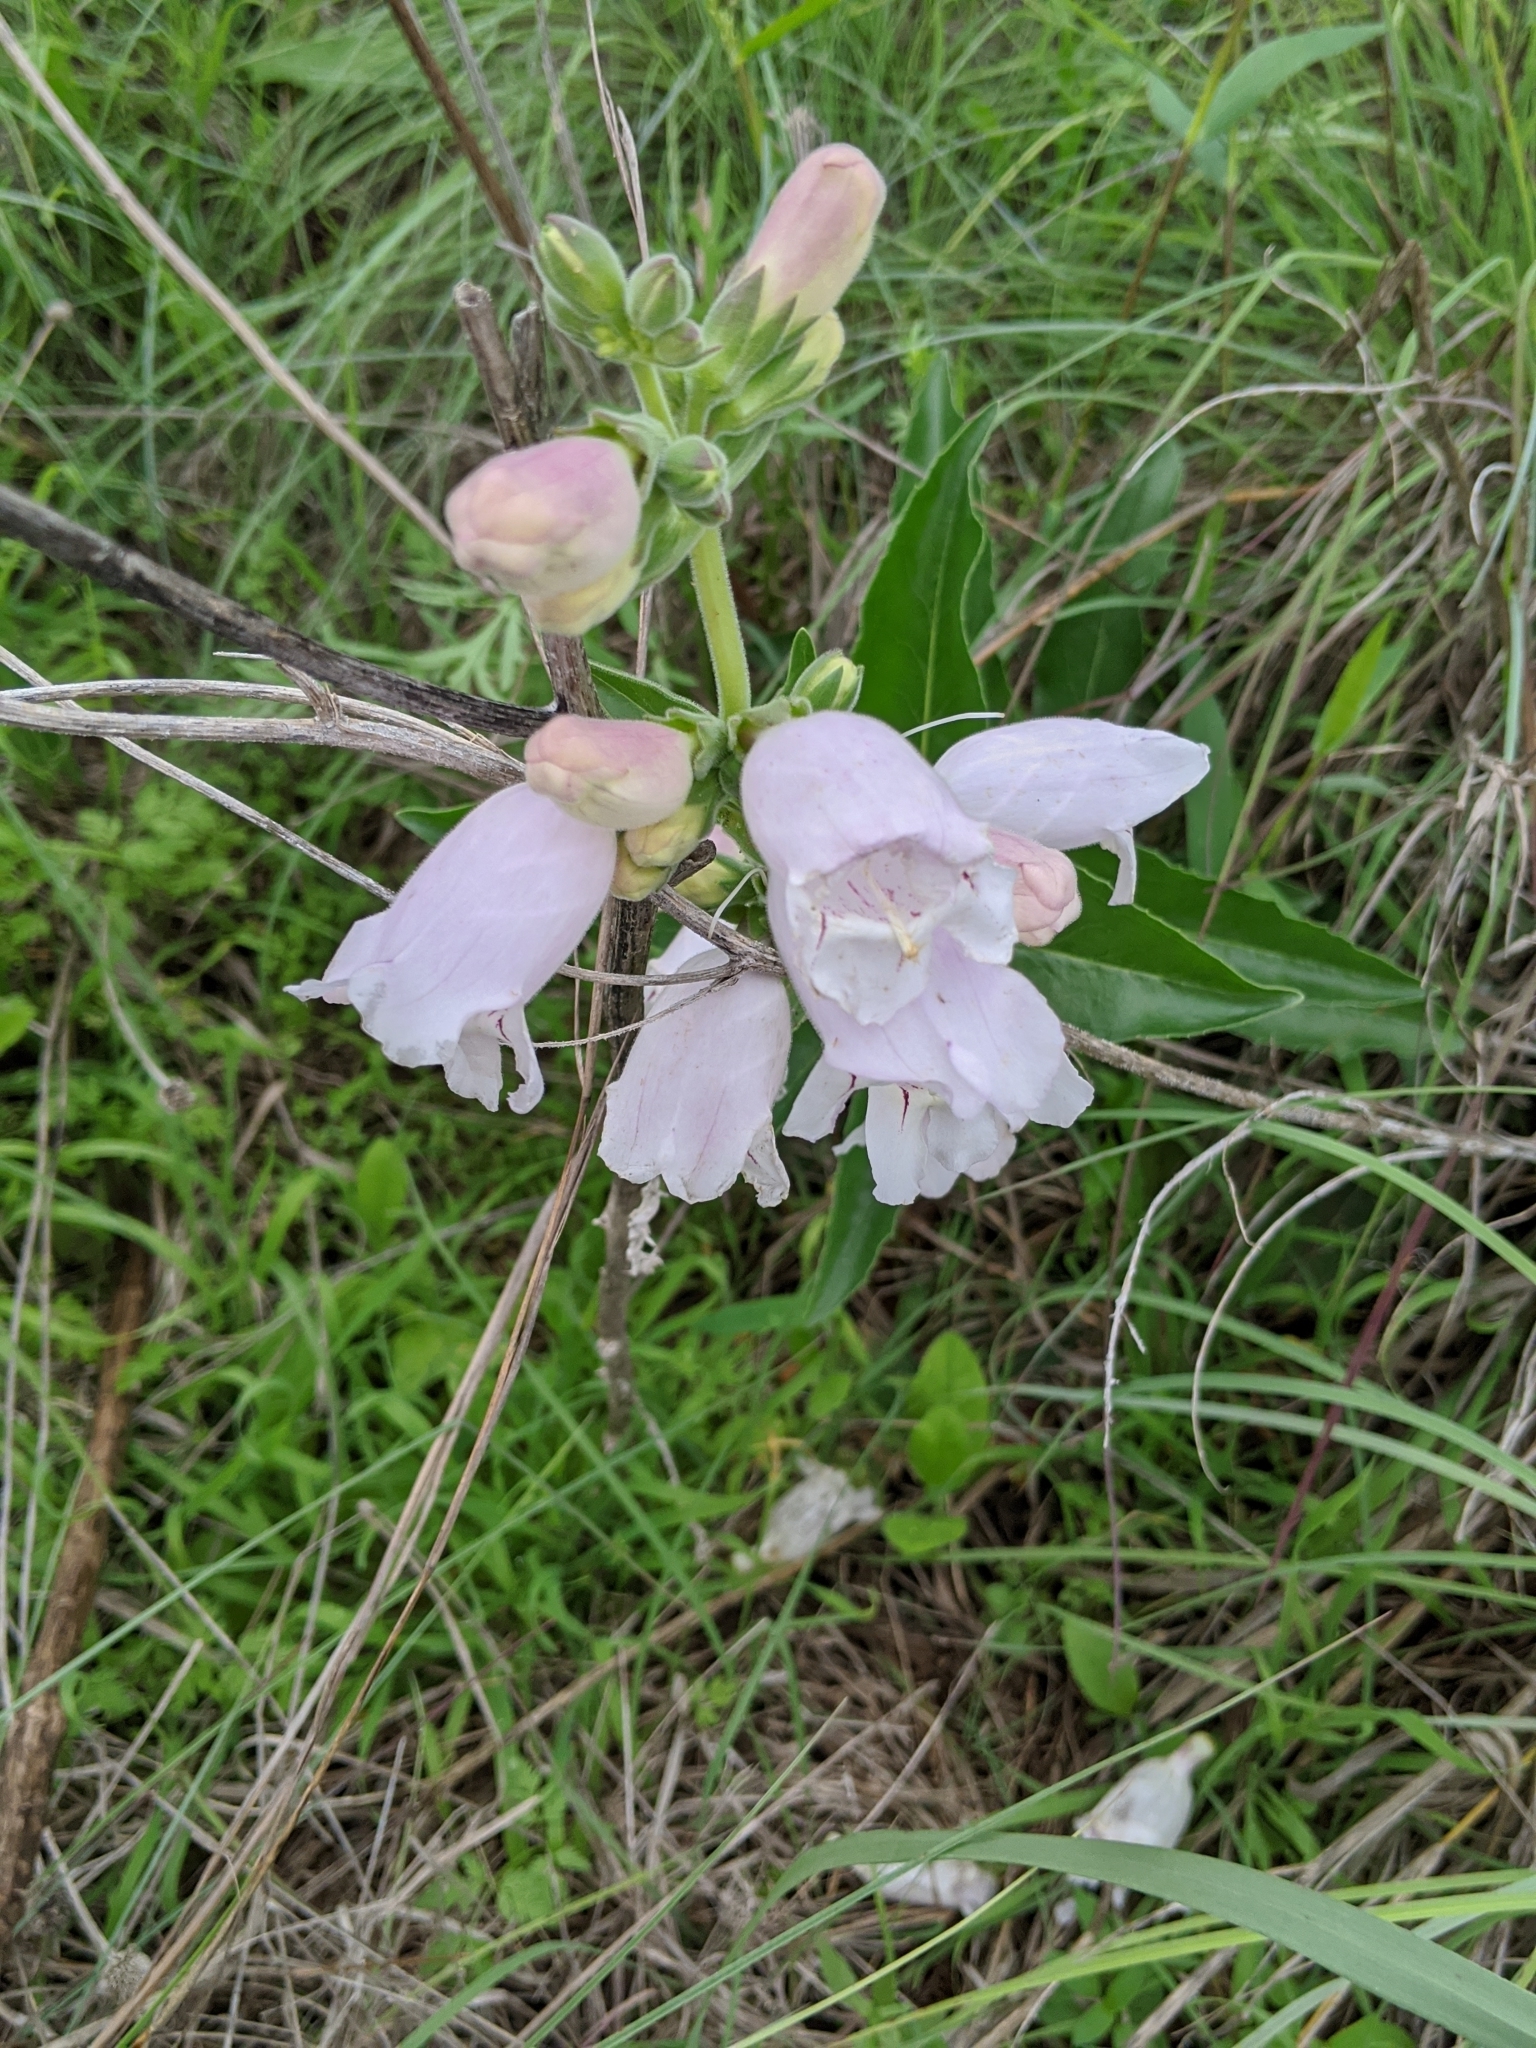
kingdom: Plantae
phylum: Tracheophyta
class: Magnoliopsida
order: Lamiales
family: Plantaginaceae
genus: Penstemon
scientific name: Penstemon cobaea
